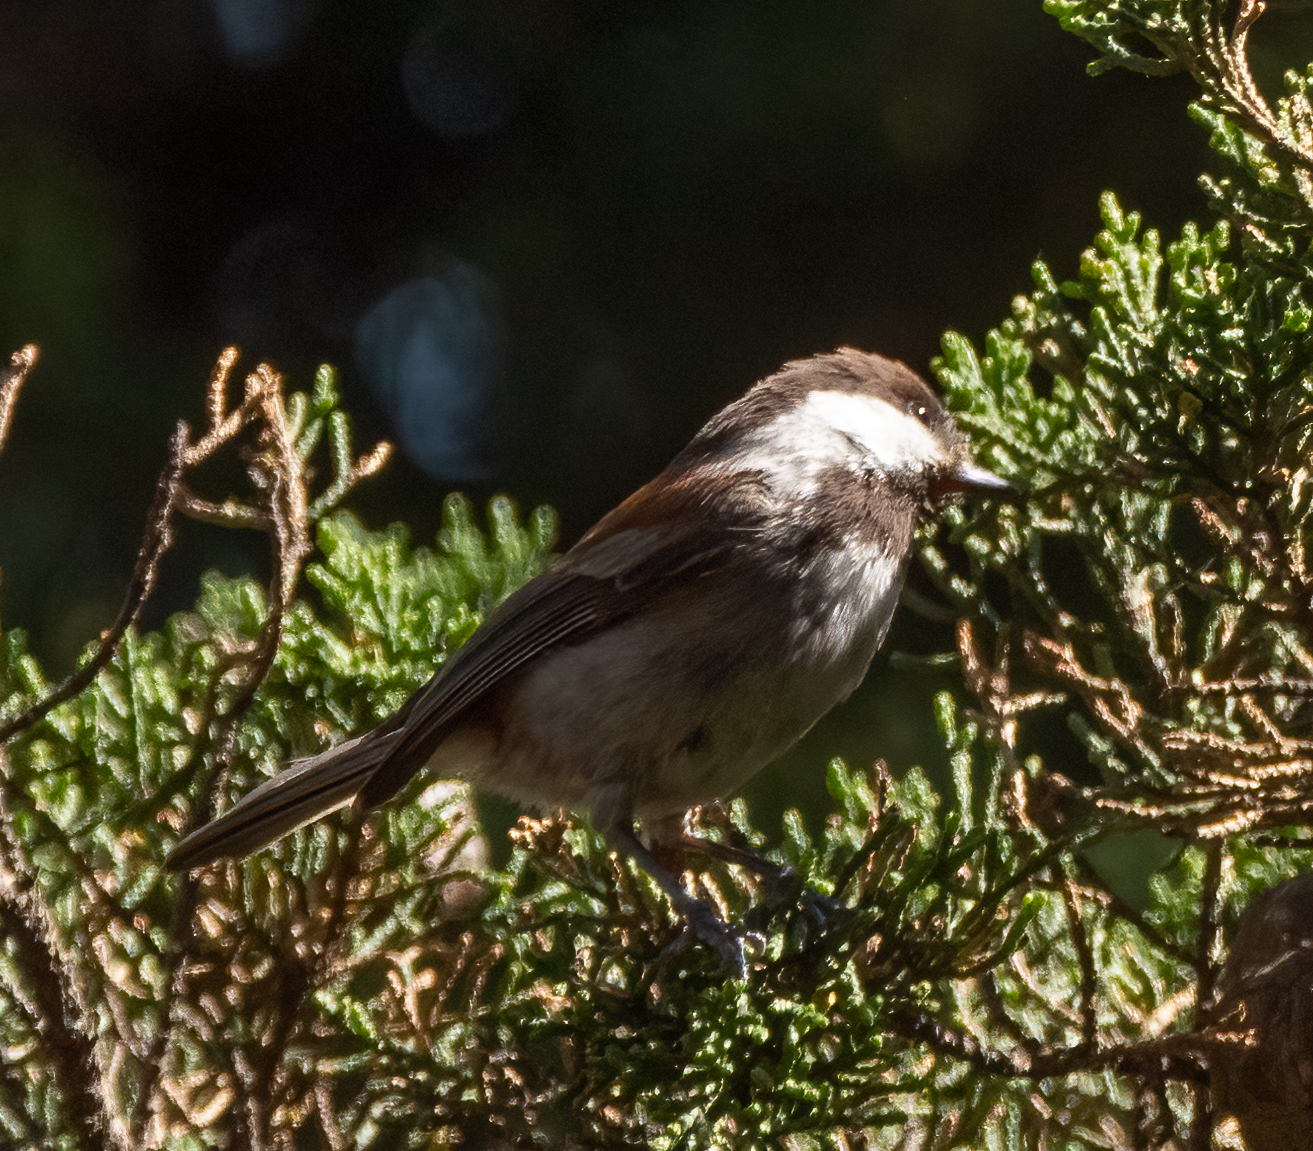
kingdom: Animalia
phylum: Chordata
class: Aves
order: Passeriformes
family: Paridae
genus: Poecile
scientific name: Poecile rufescens
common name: Chestnut-backed chickadee
